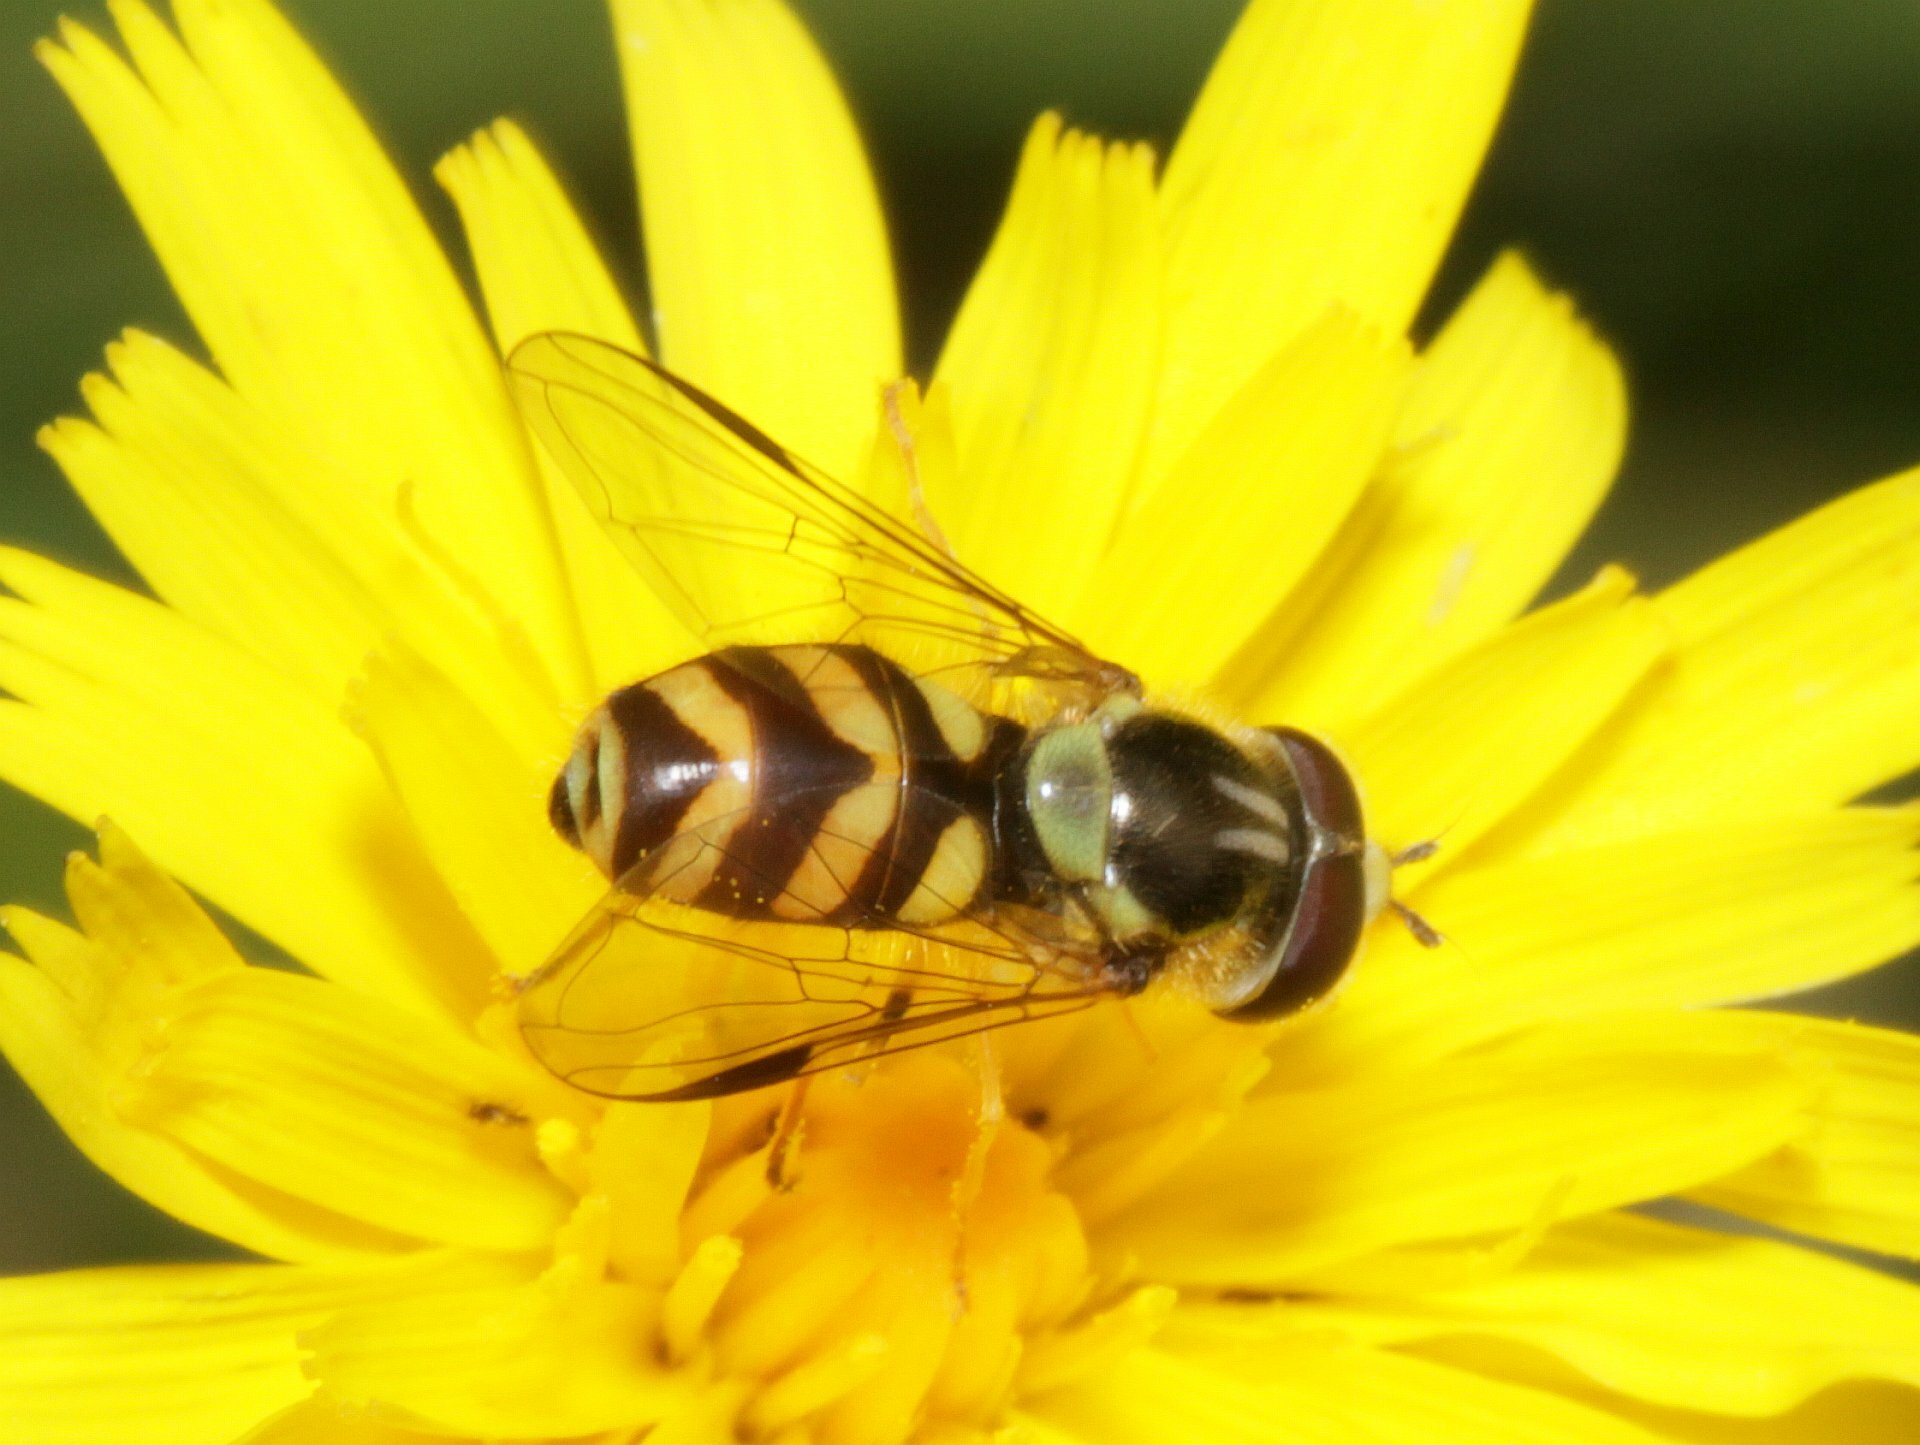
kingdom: Animalia
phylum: Arthropoda
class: Insecta
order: Diptera
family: Syrphidae
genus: Dasysyrphus
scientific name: Dasysyrphus albostriatus
